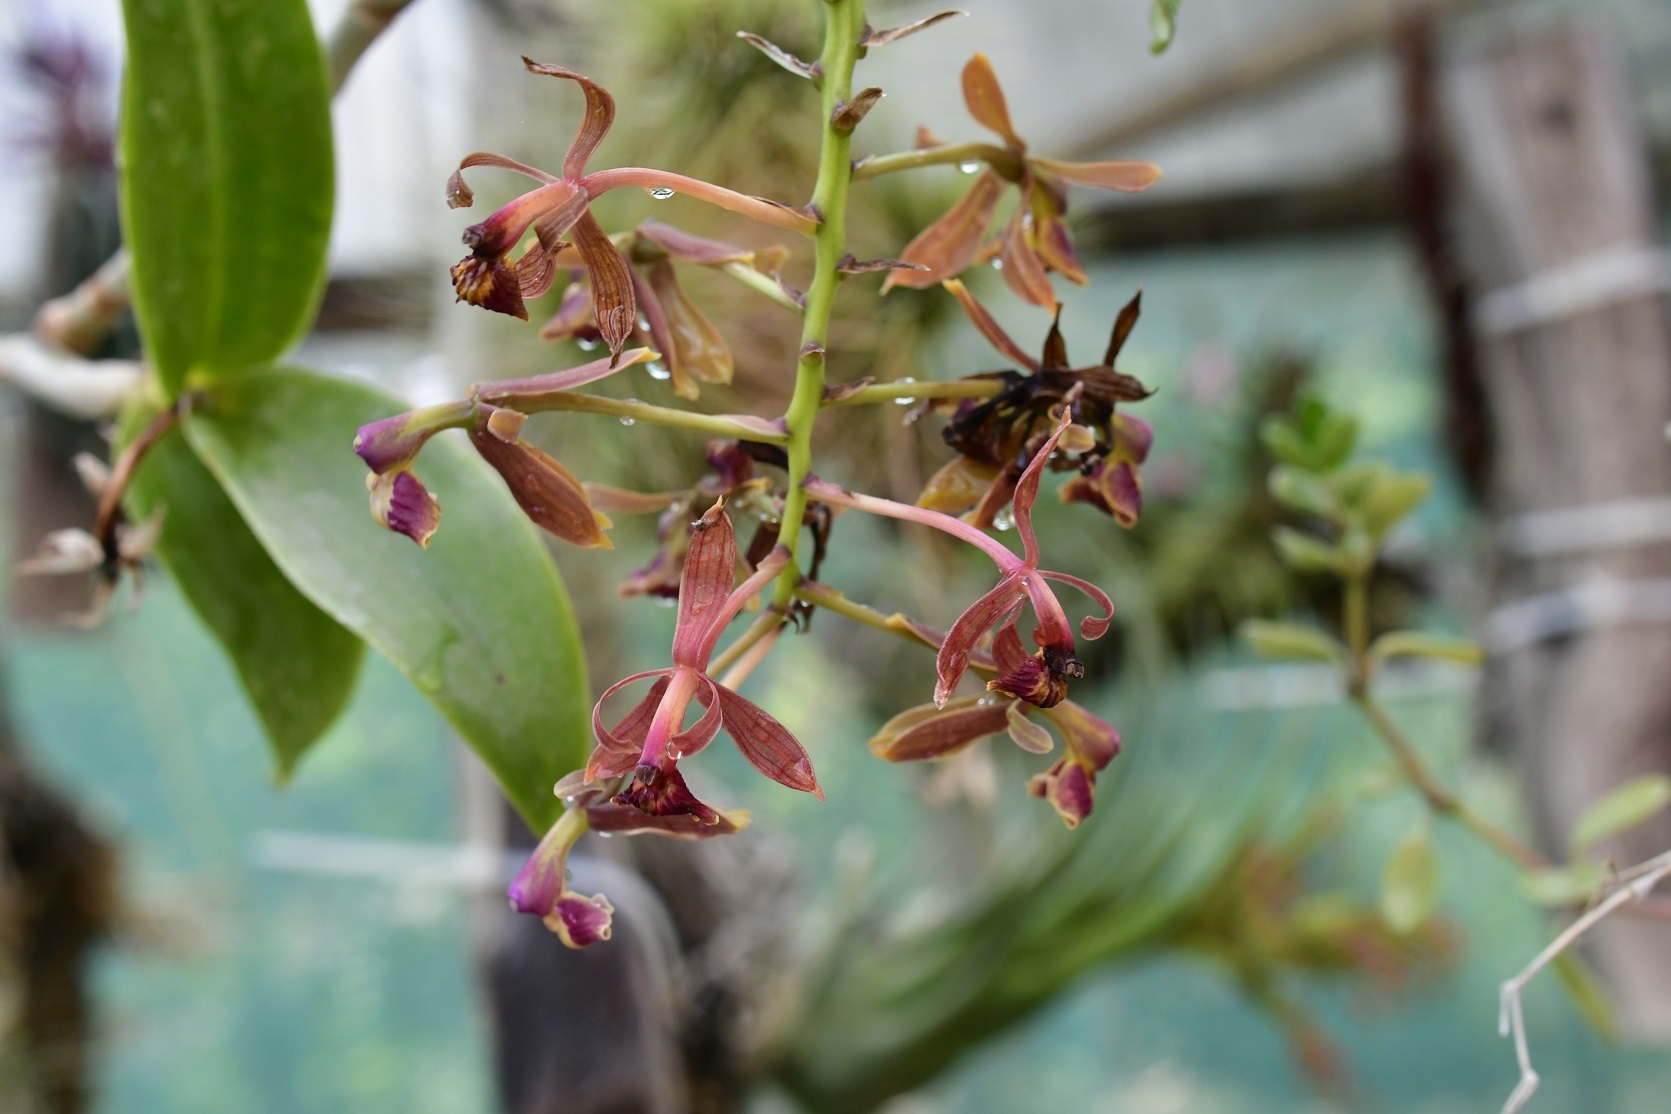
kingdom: Plantae
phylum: Tracheophyta
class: Liliopsida
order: Asparagales
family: Orchidaceae
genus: Epidendrum
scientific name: Epidendrum radioferens
